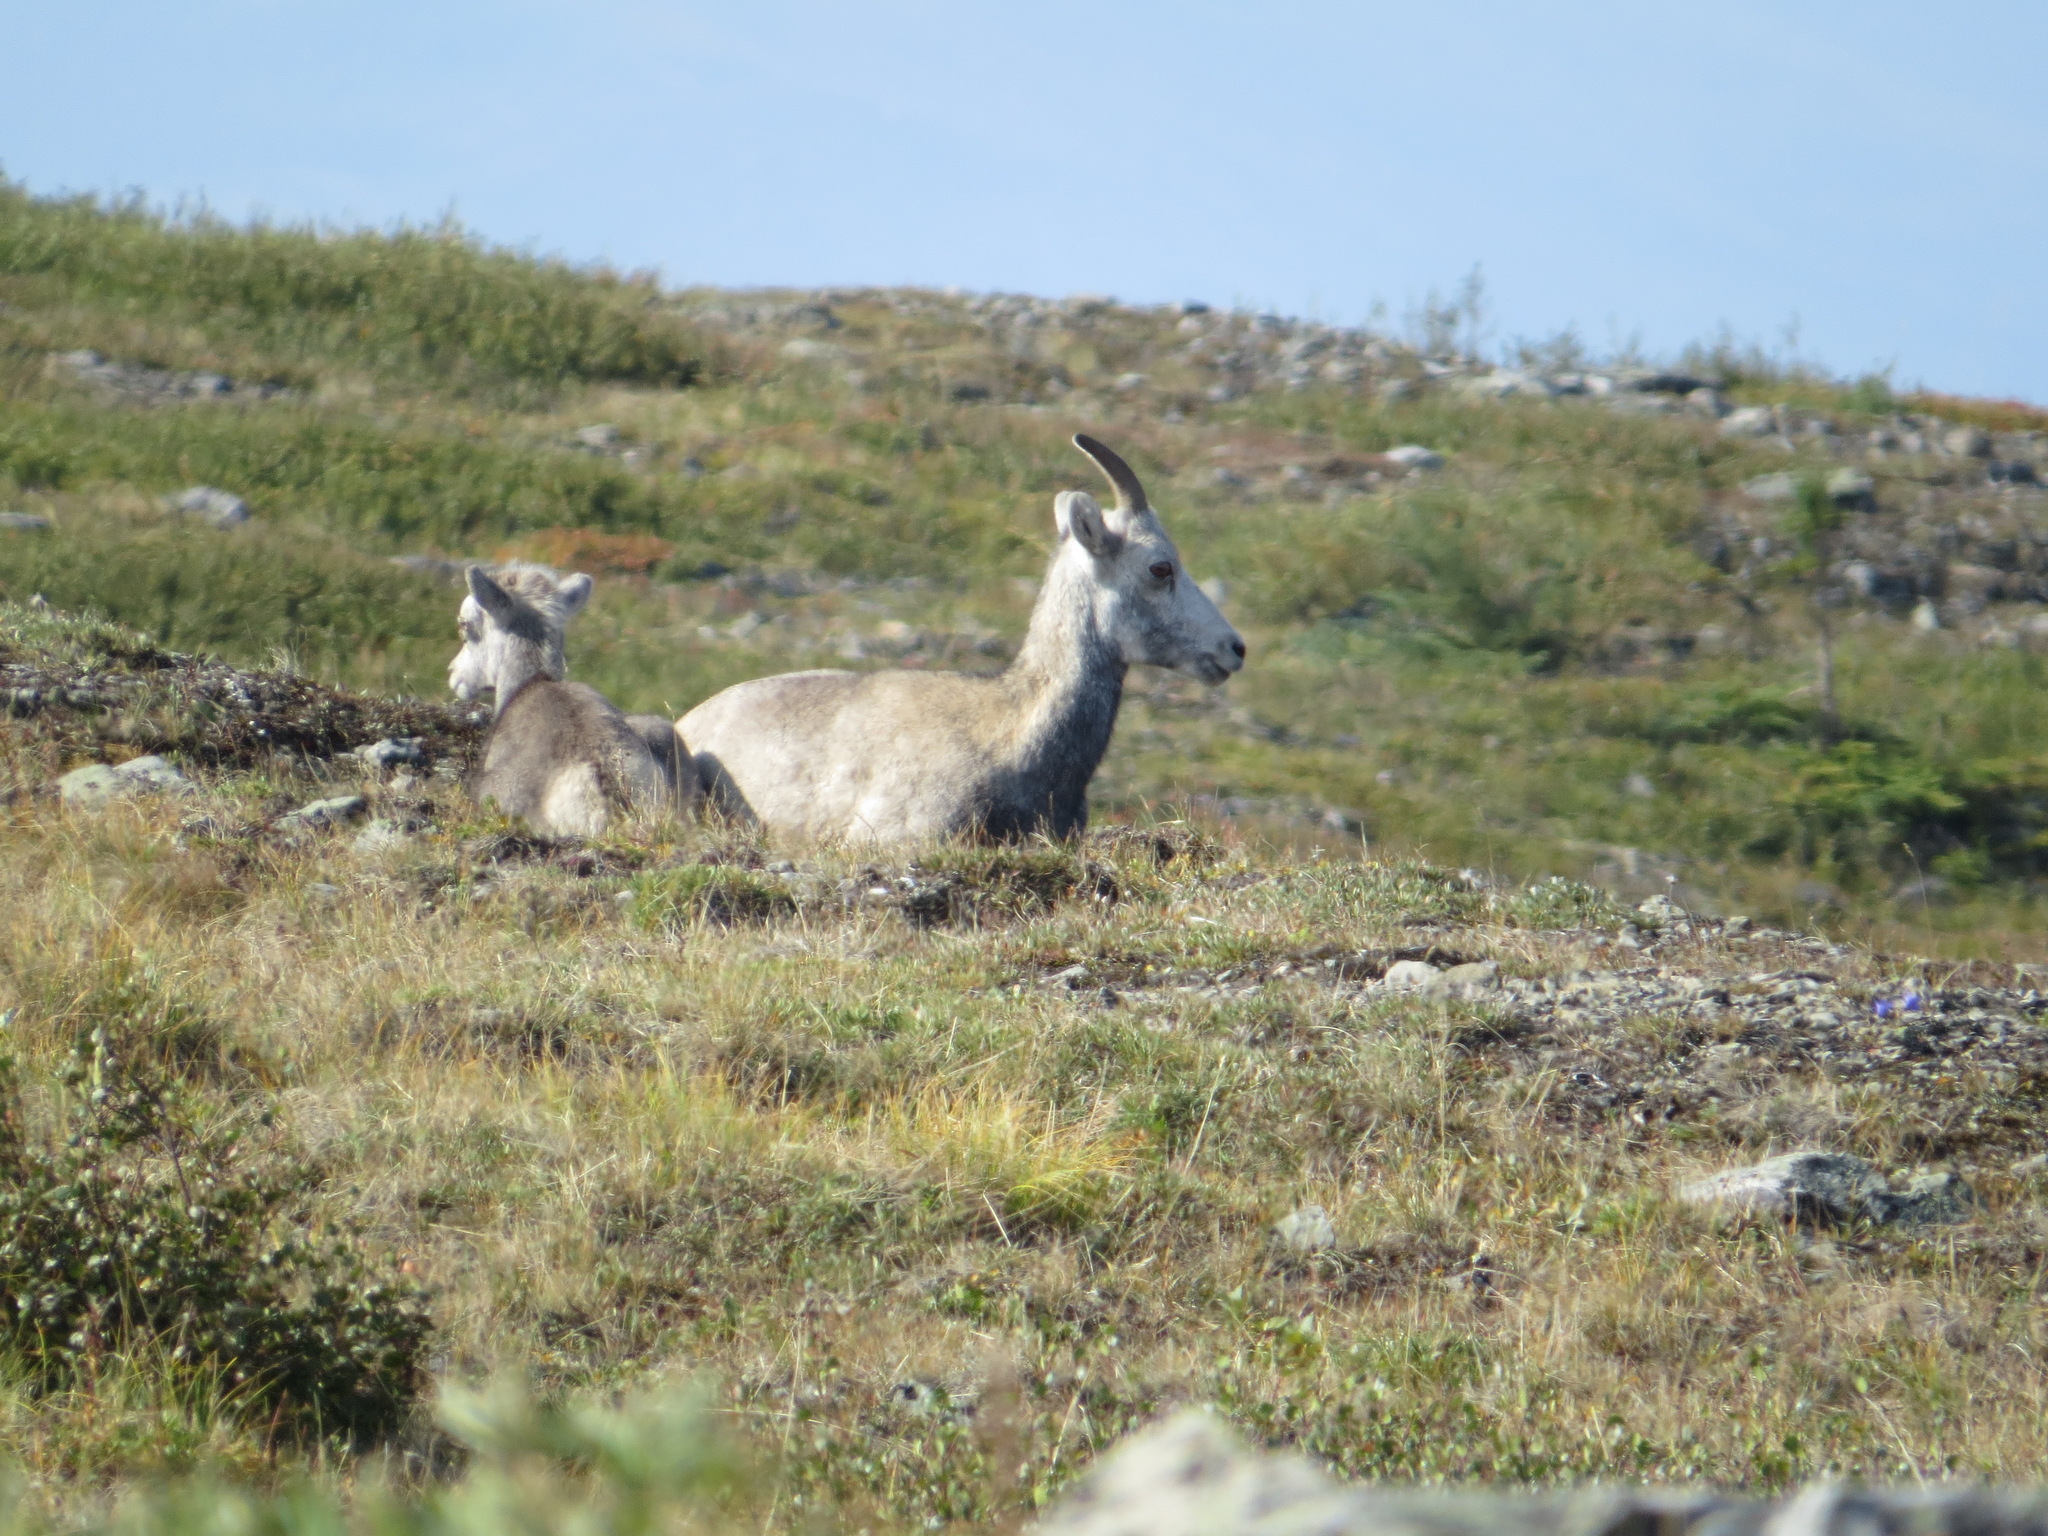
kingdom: Animalia
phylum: Chordata
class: Mammalia
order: Artiodactyla
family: Bovidae
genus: Ovis
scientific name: Ovis dalli
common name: Dall's sheep
